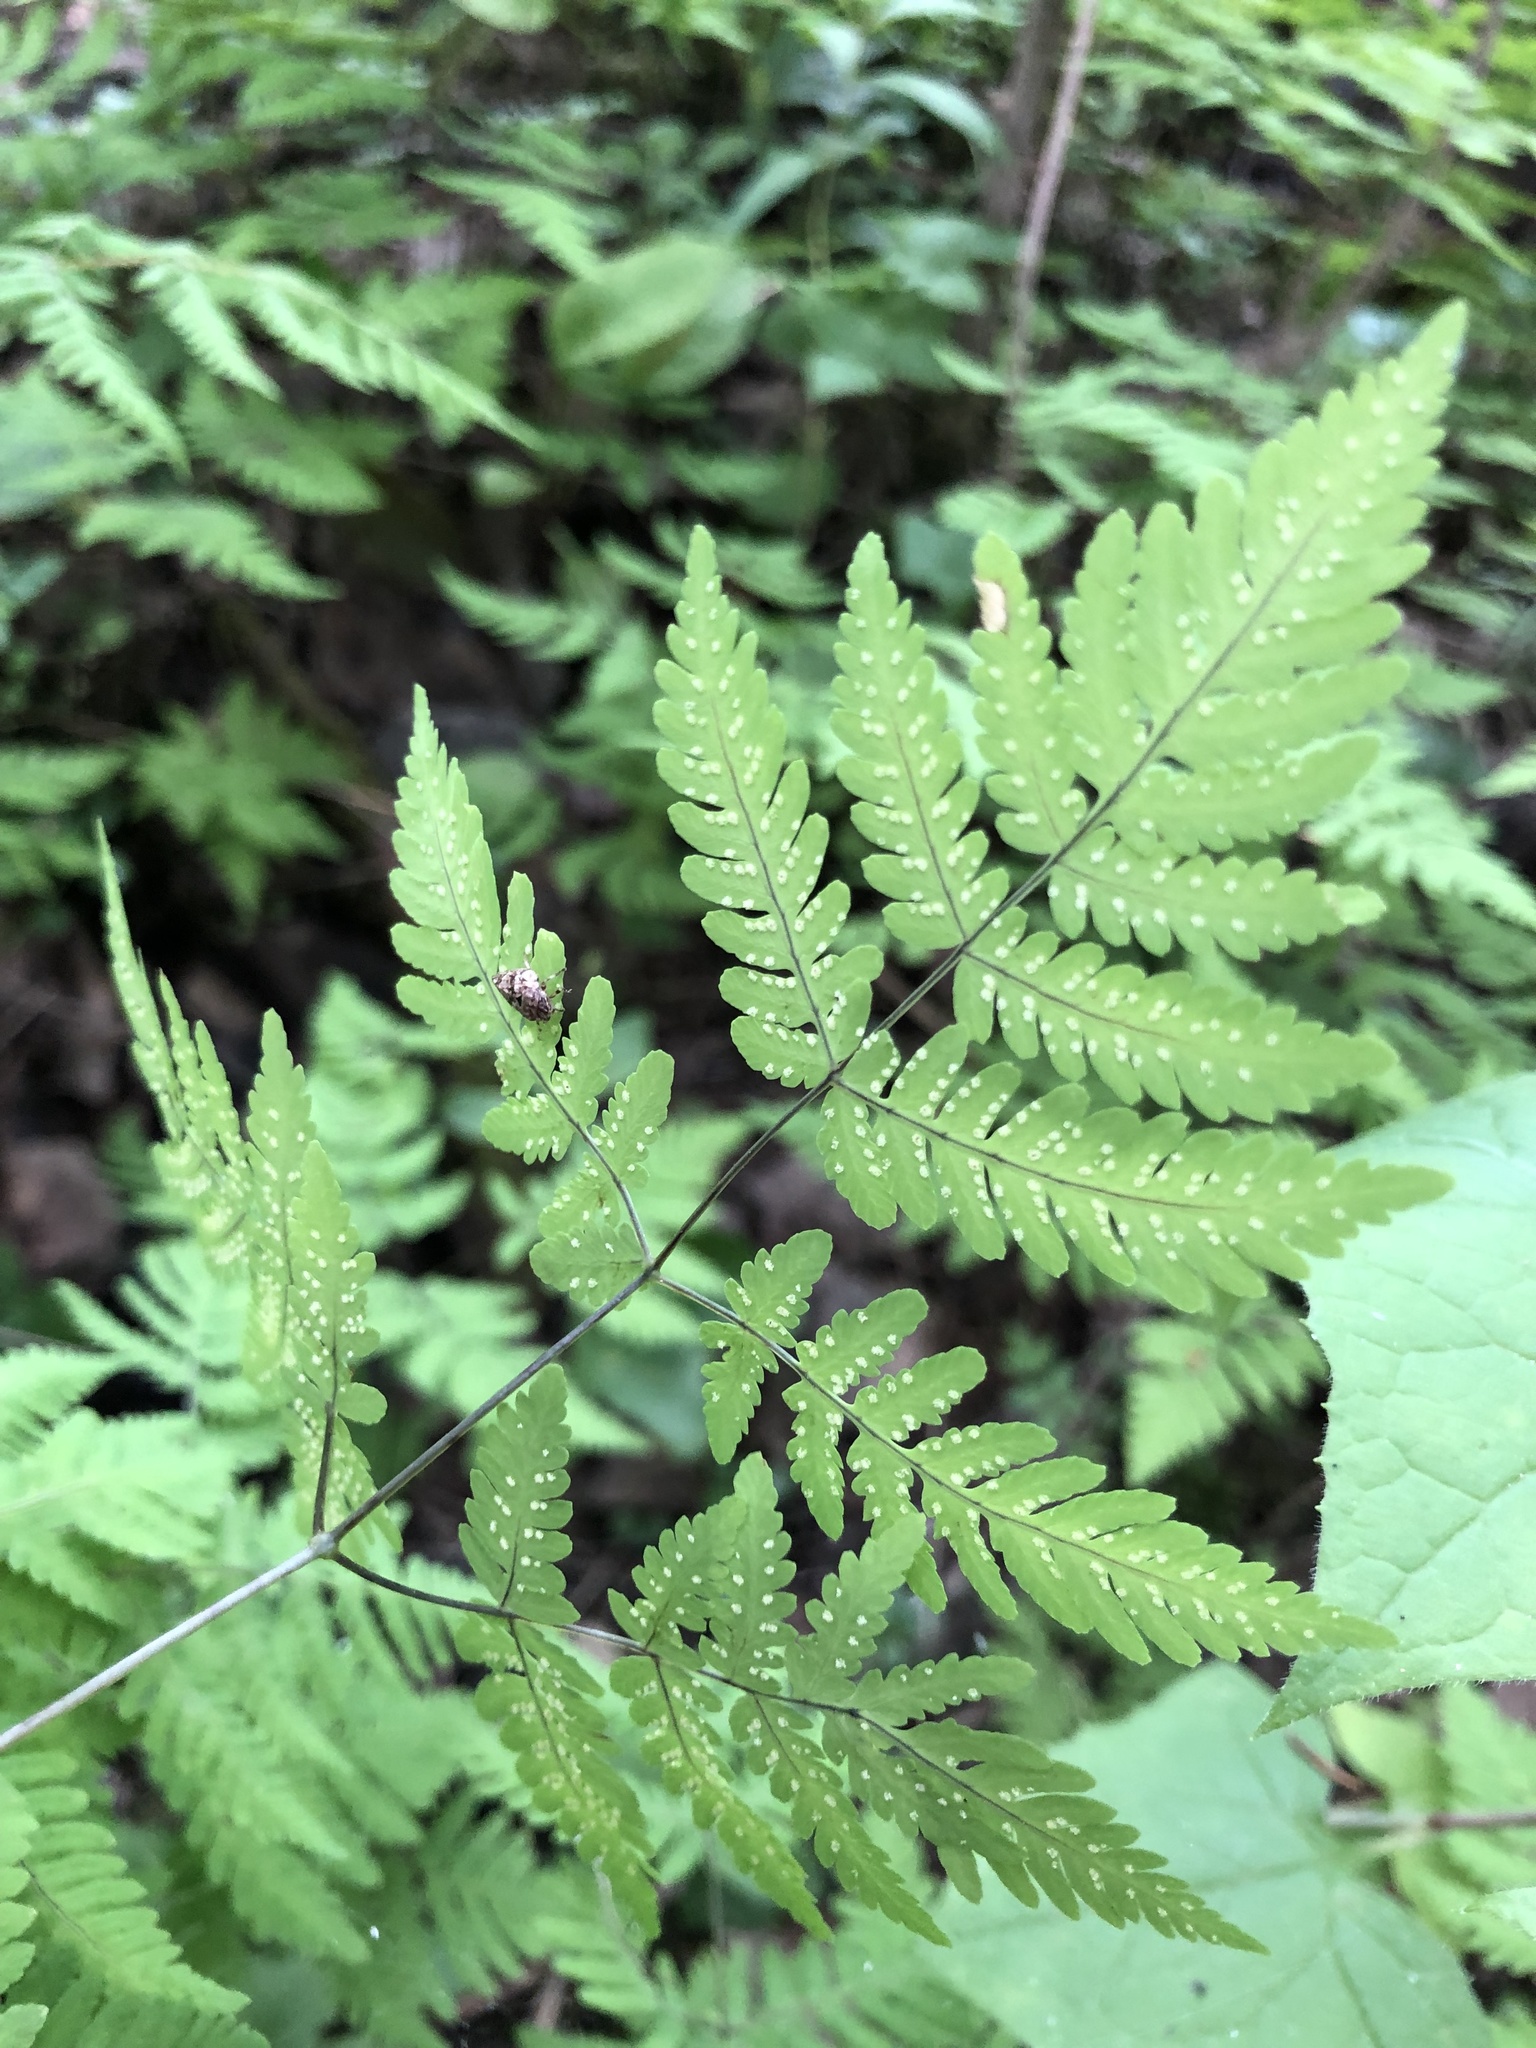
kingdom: Plantae
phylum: Tracheophyta
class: Polypodiopsida
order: Polypodiales
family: Cystopteridaceae
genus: Gymnocarpium
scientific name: Gymnocarpium dryopteris
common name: Oak fern
